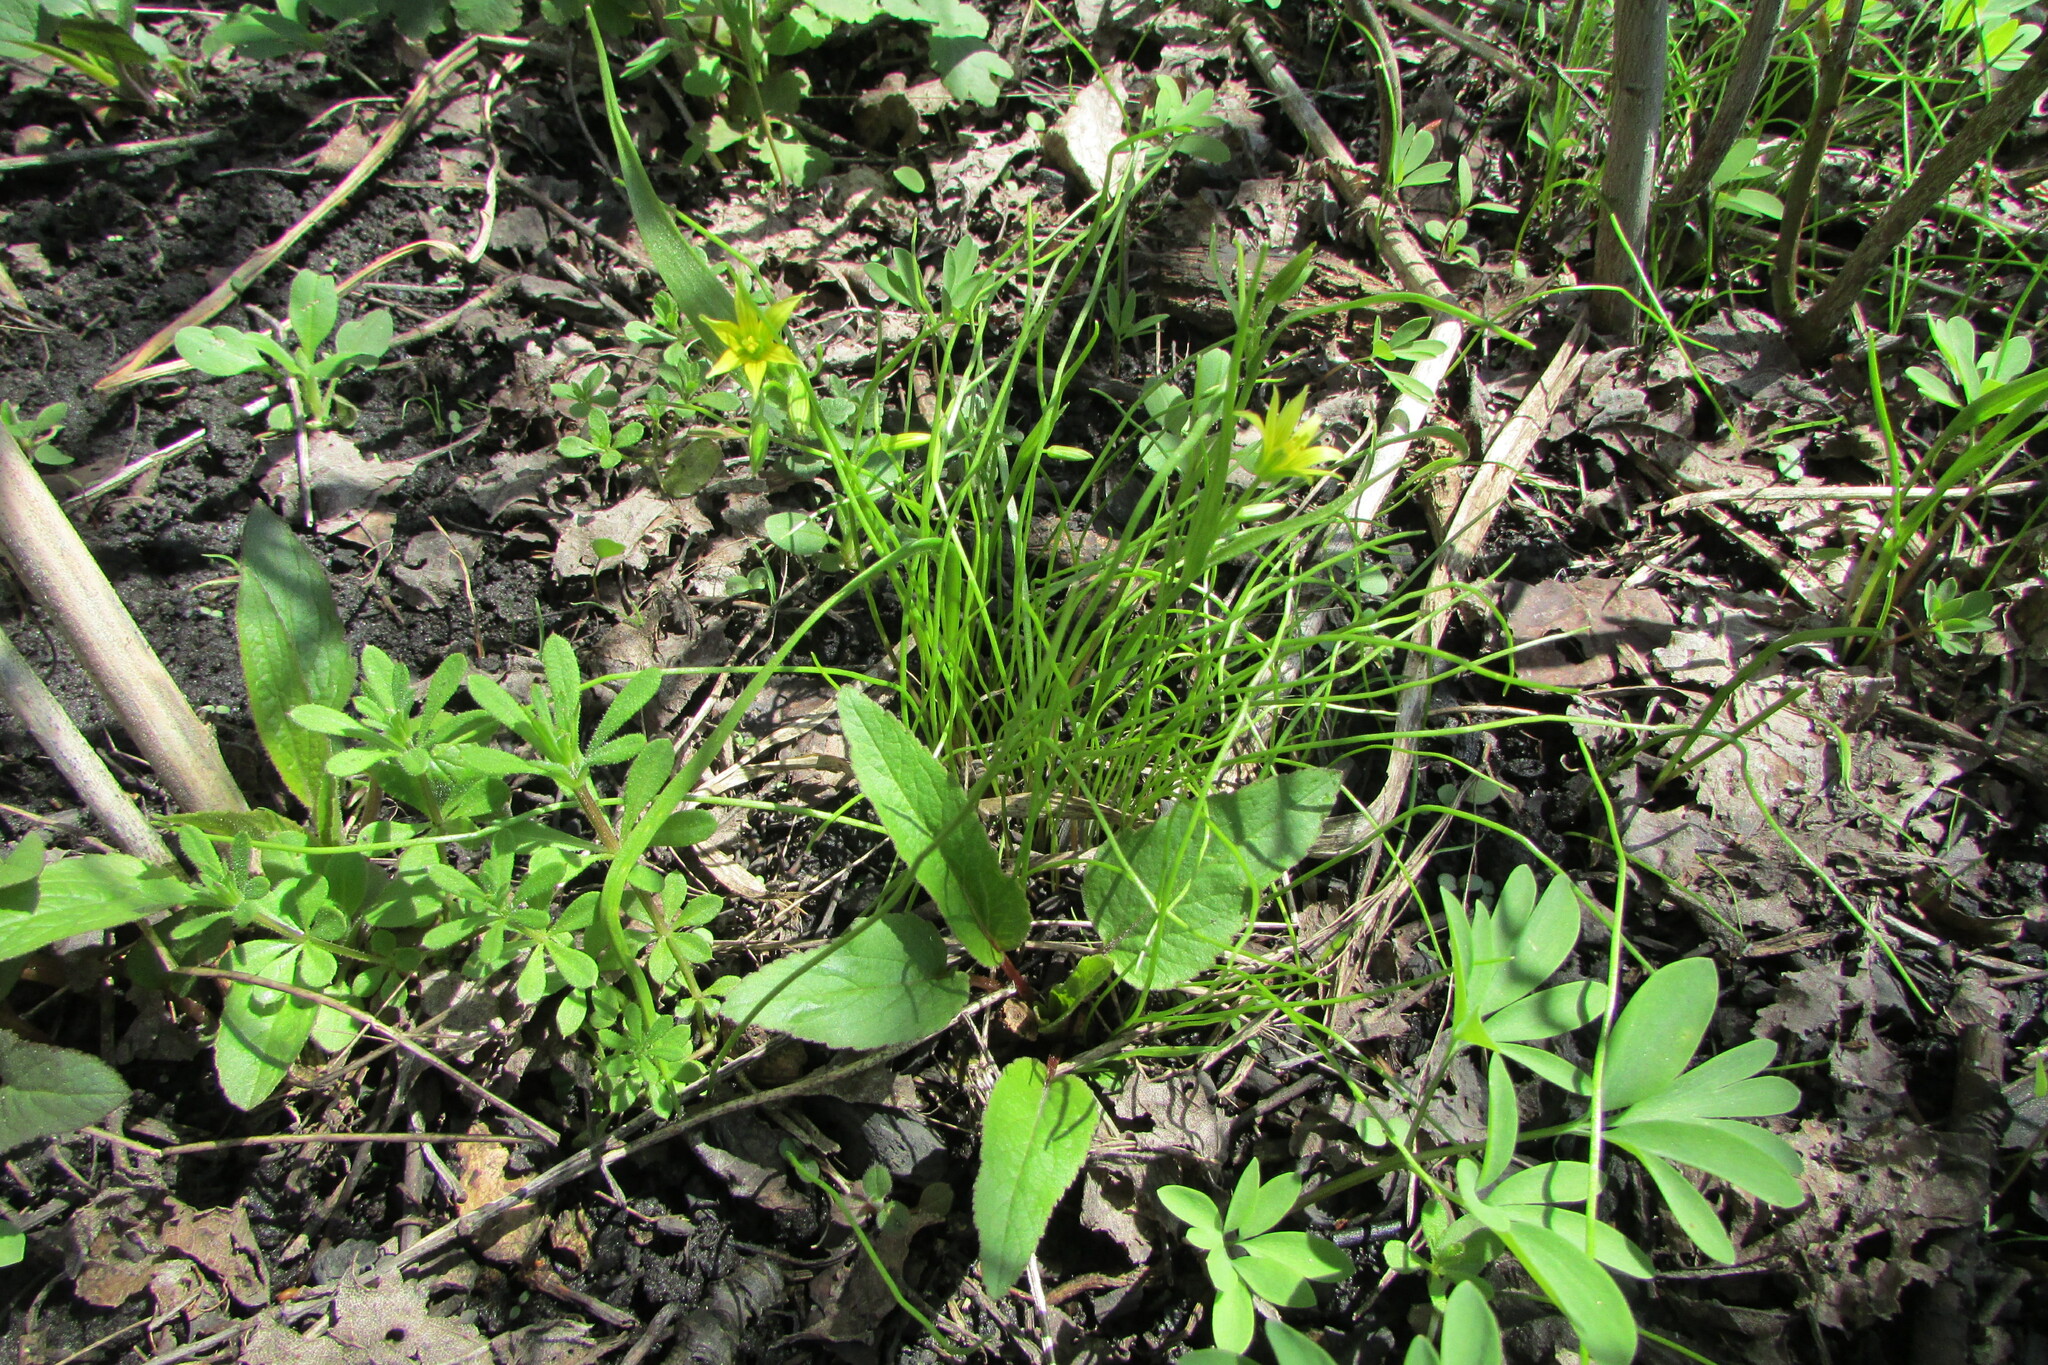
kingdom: Plantae
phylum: Tracheophyta
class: Liliopsida
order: Liliales
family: Liliaceae
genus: Gagea
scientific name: Gagea minima
